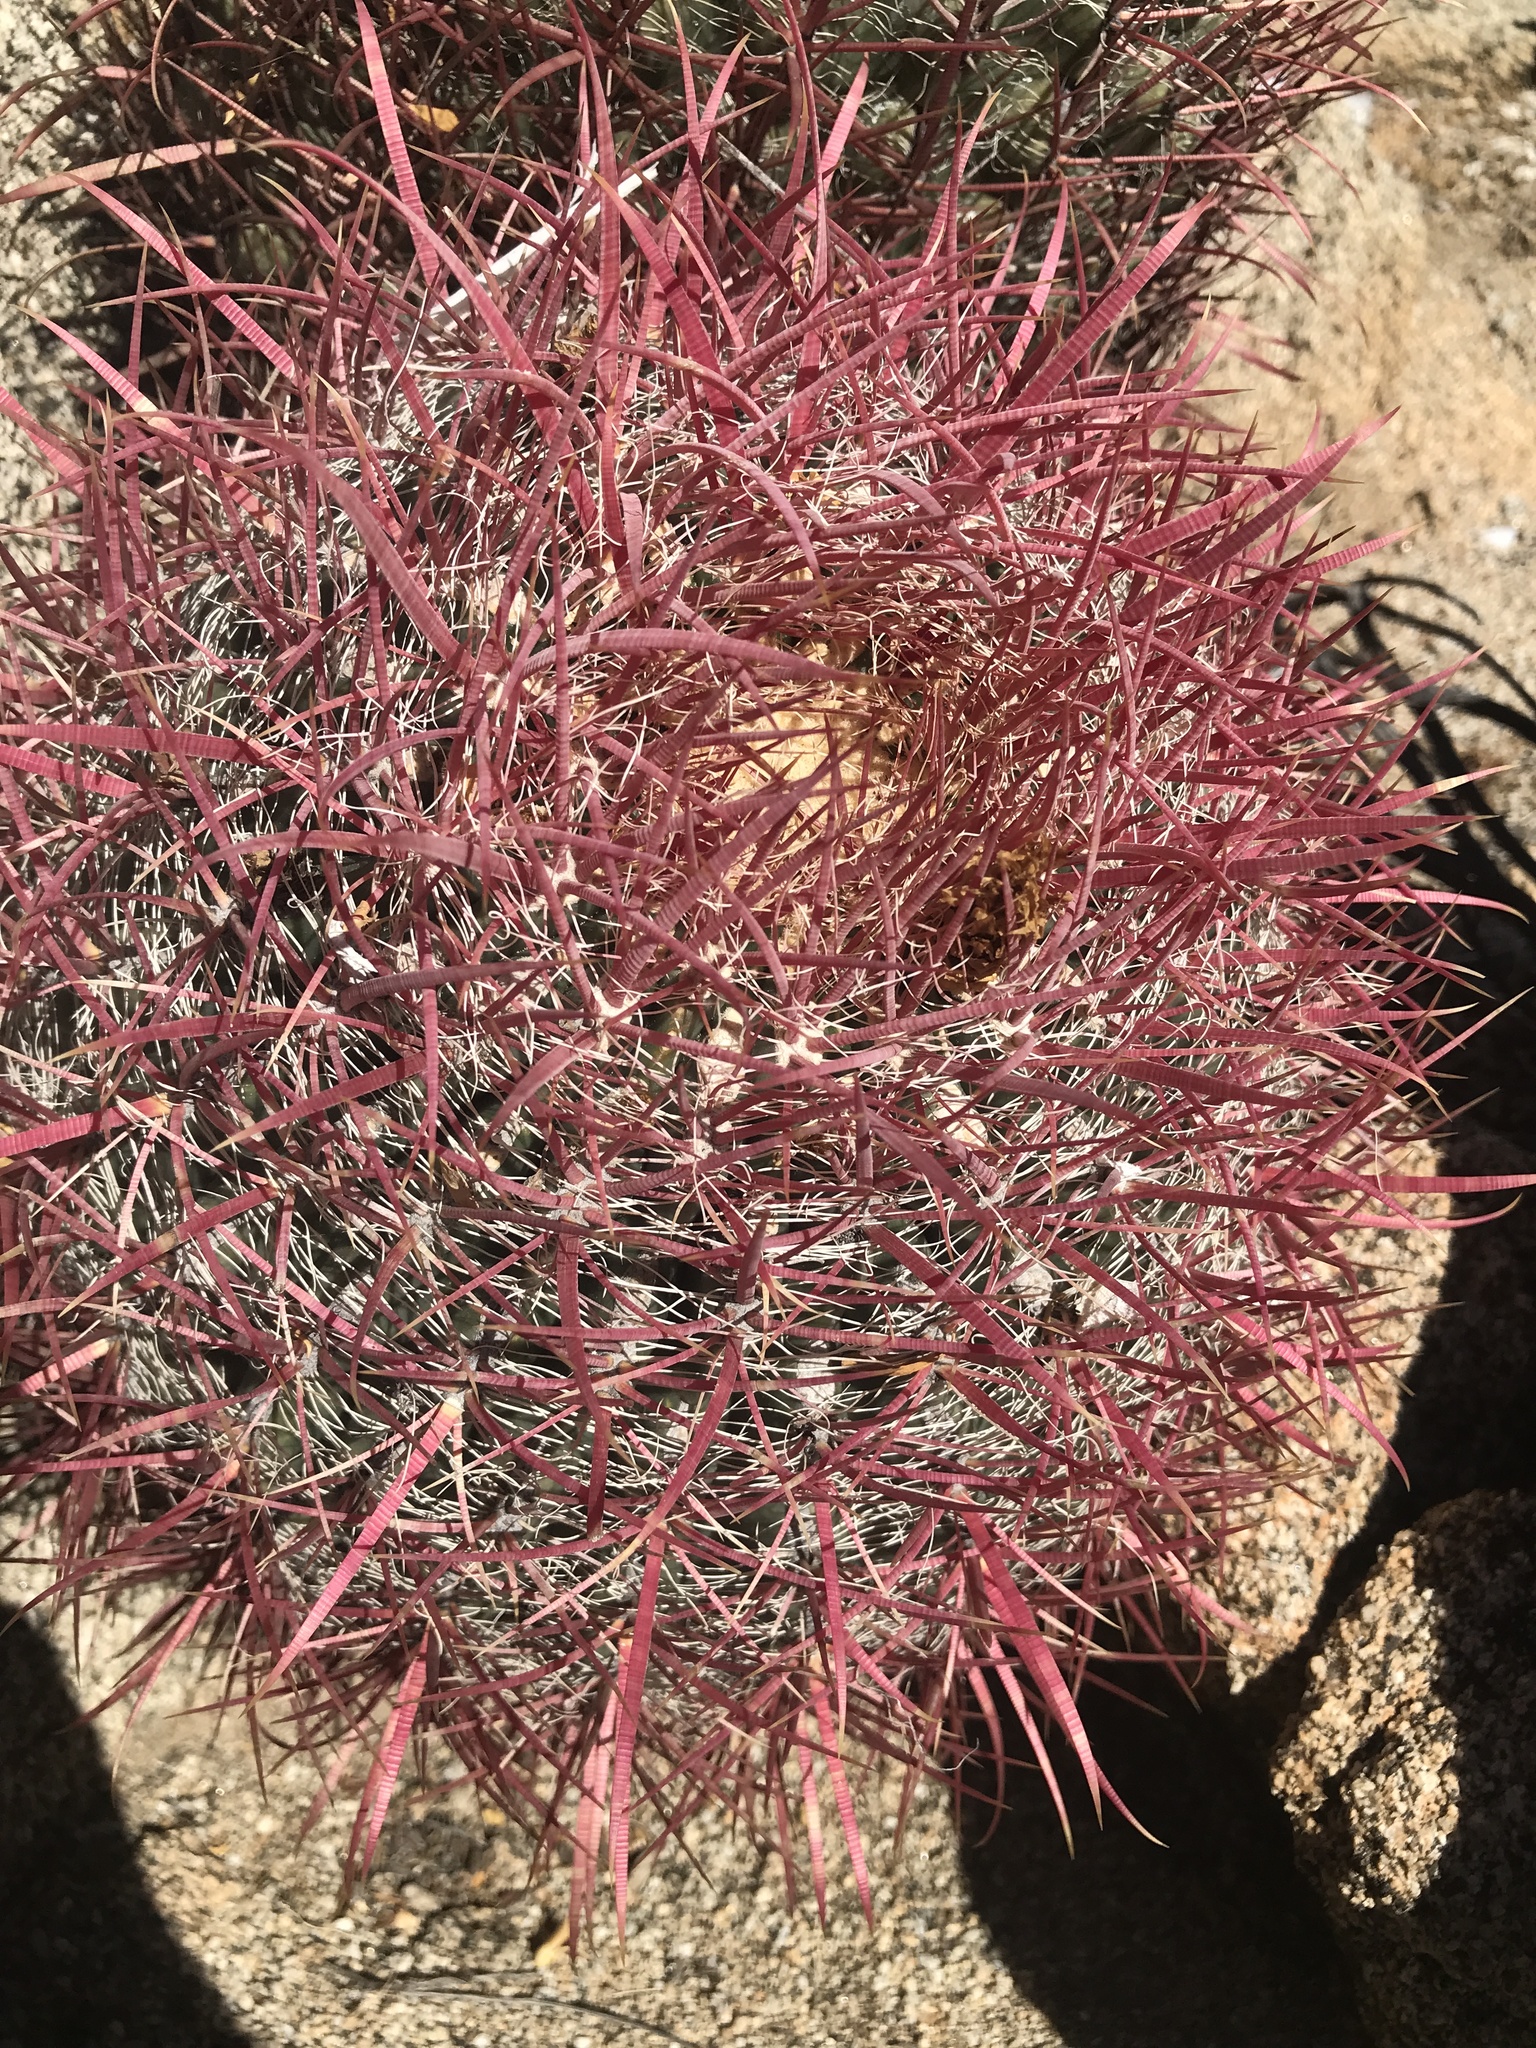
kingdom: Plantae
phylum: Tracheophyta
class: Magnoliopsida
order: Caryophyllales
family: Cactaceae
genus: Ferocactus
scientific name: Ferocactus gracilis
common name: Fire barrel cactus
